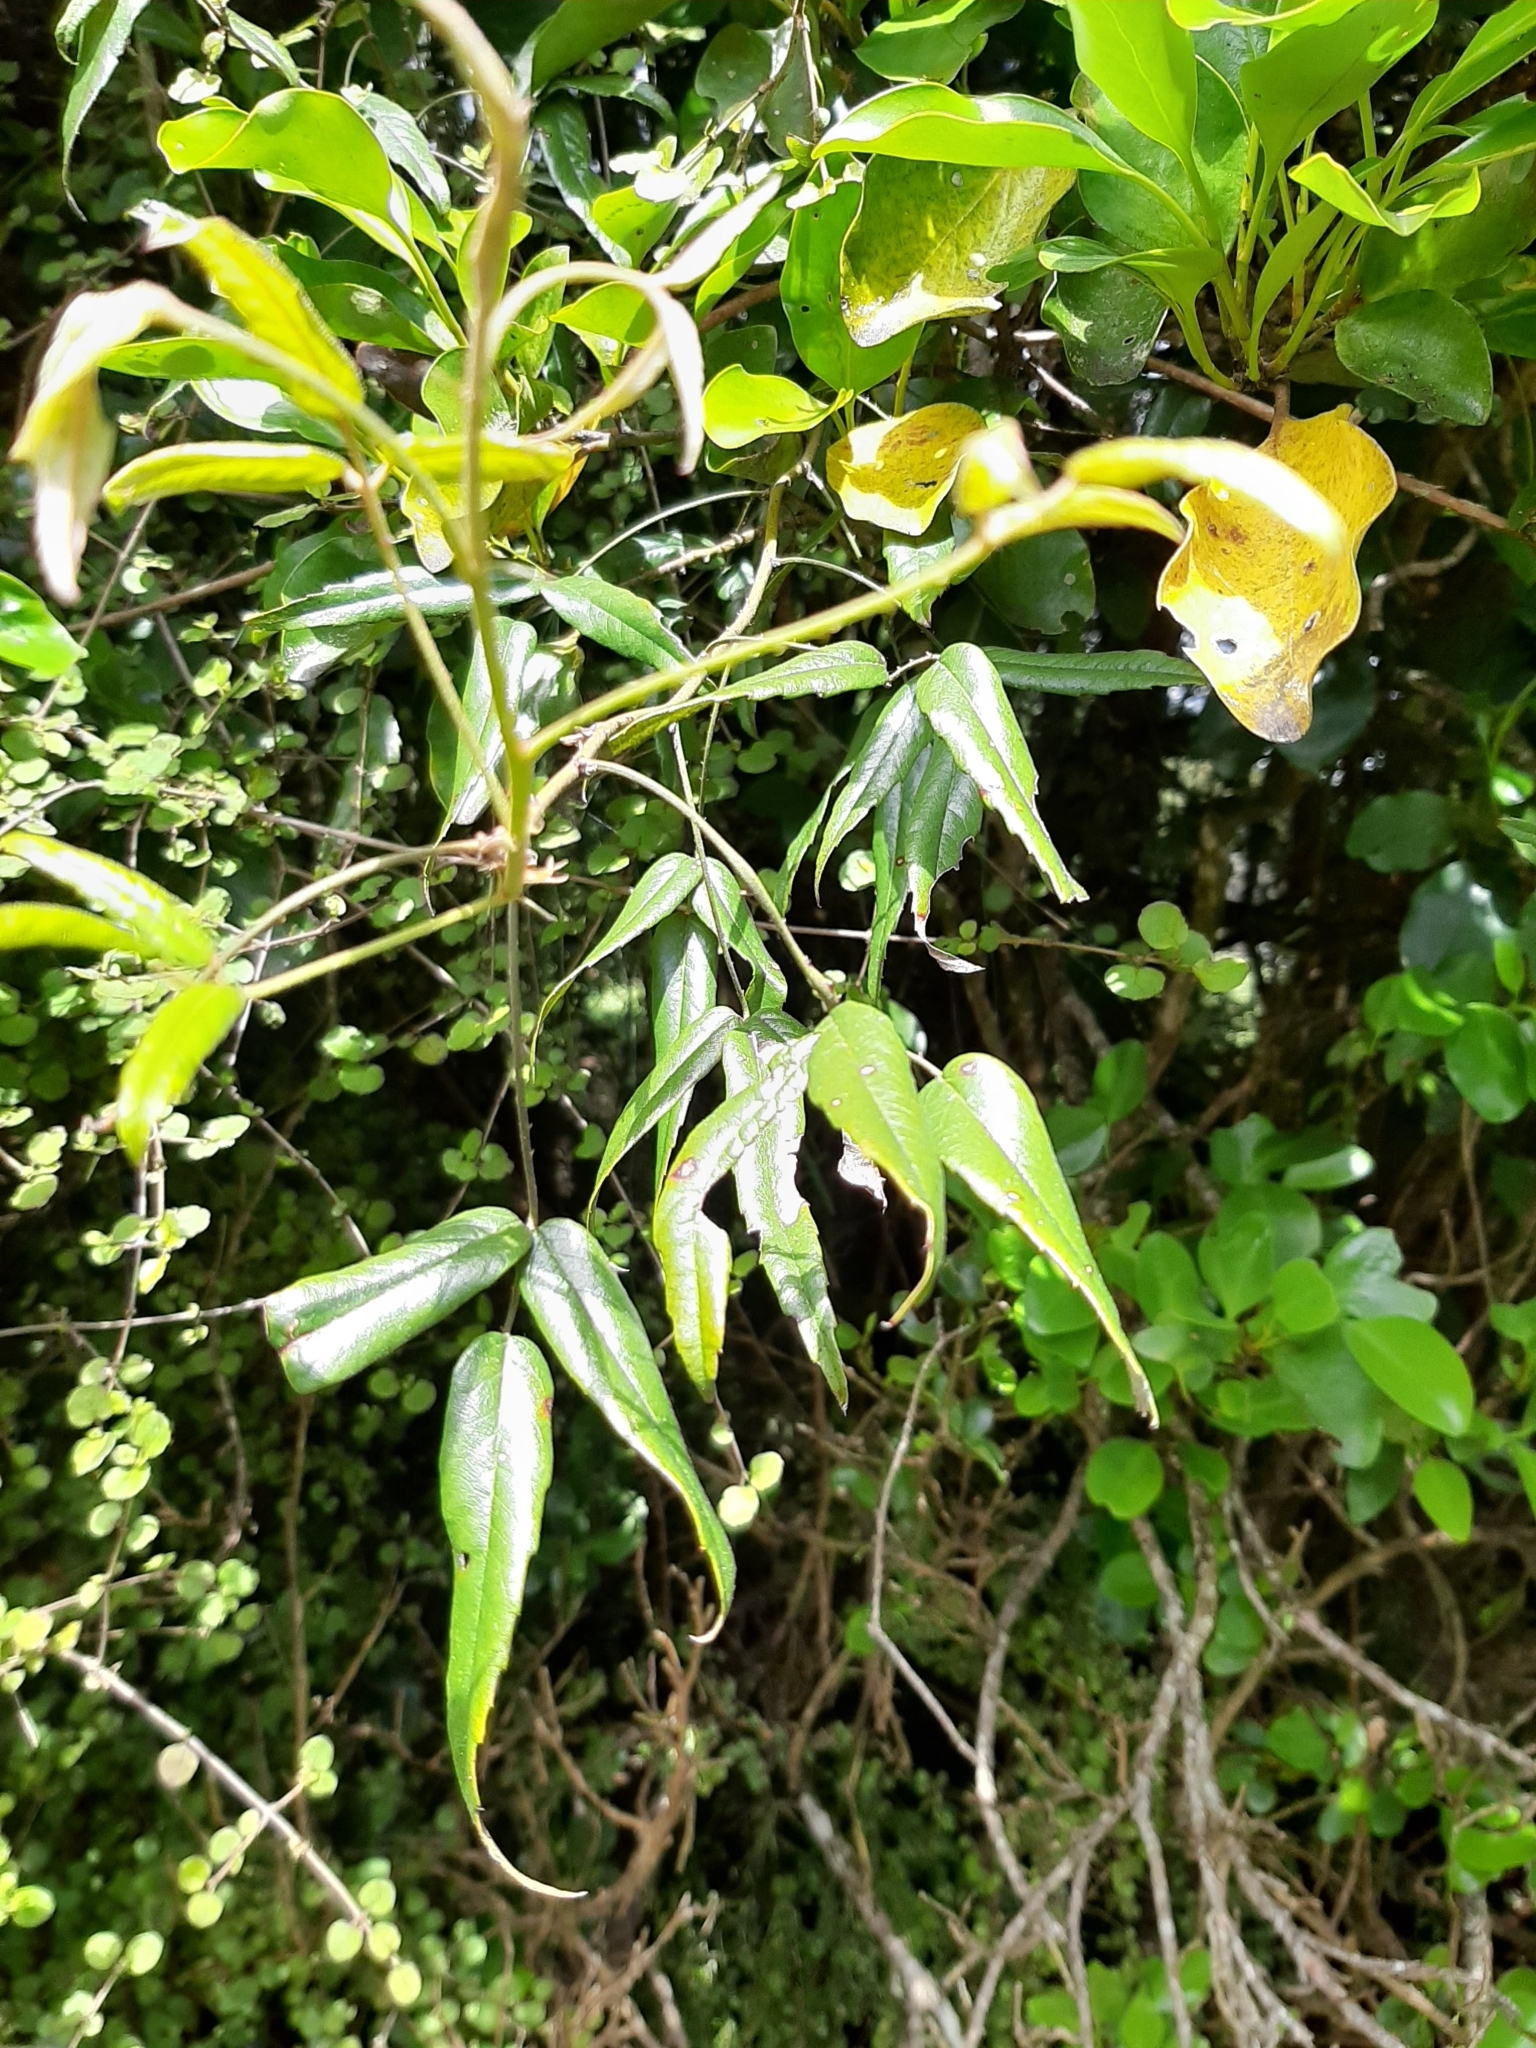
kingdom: Plantae
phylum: Tracheophyta
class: Magnoliopsida
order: Rosales
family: Rosaceae
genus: Rubus
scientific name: Rubus schmidelioides
